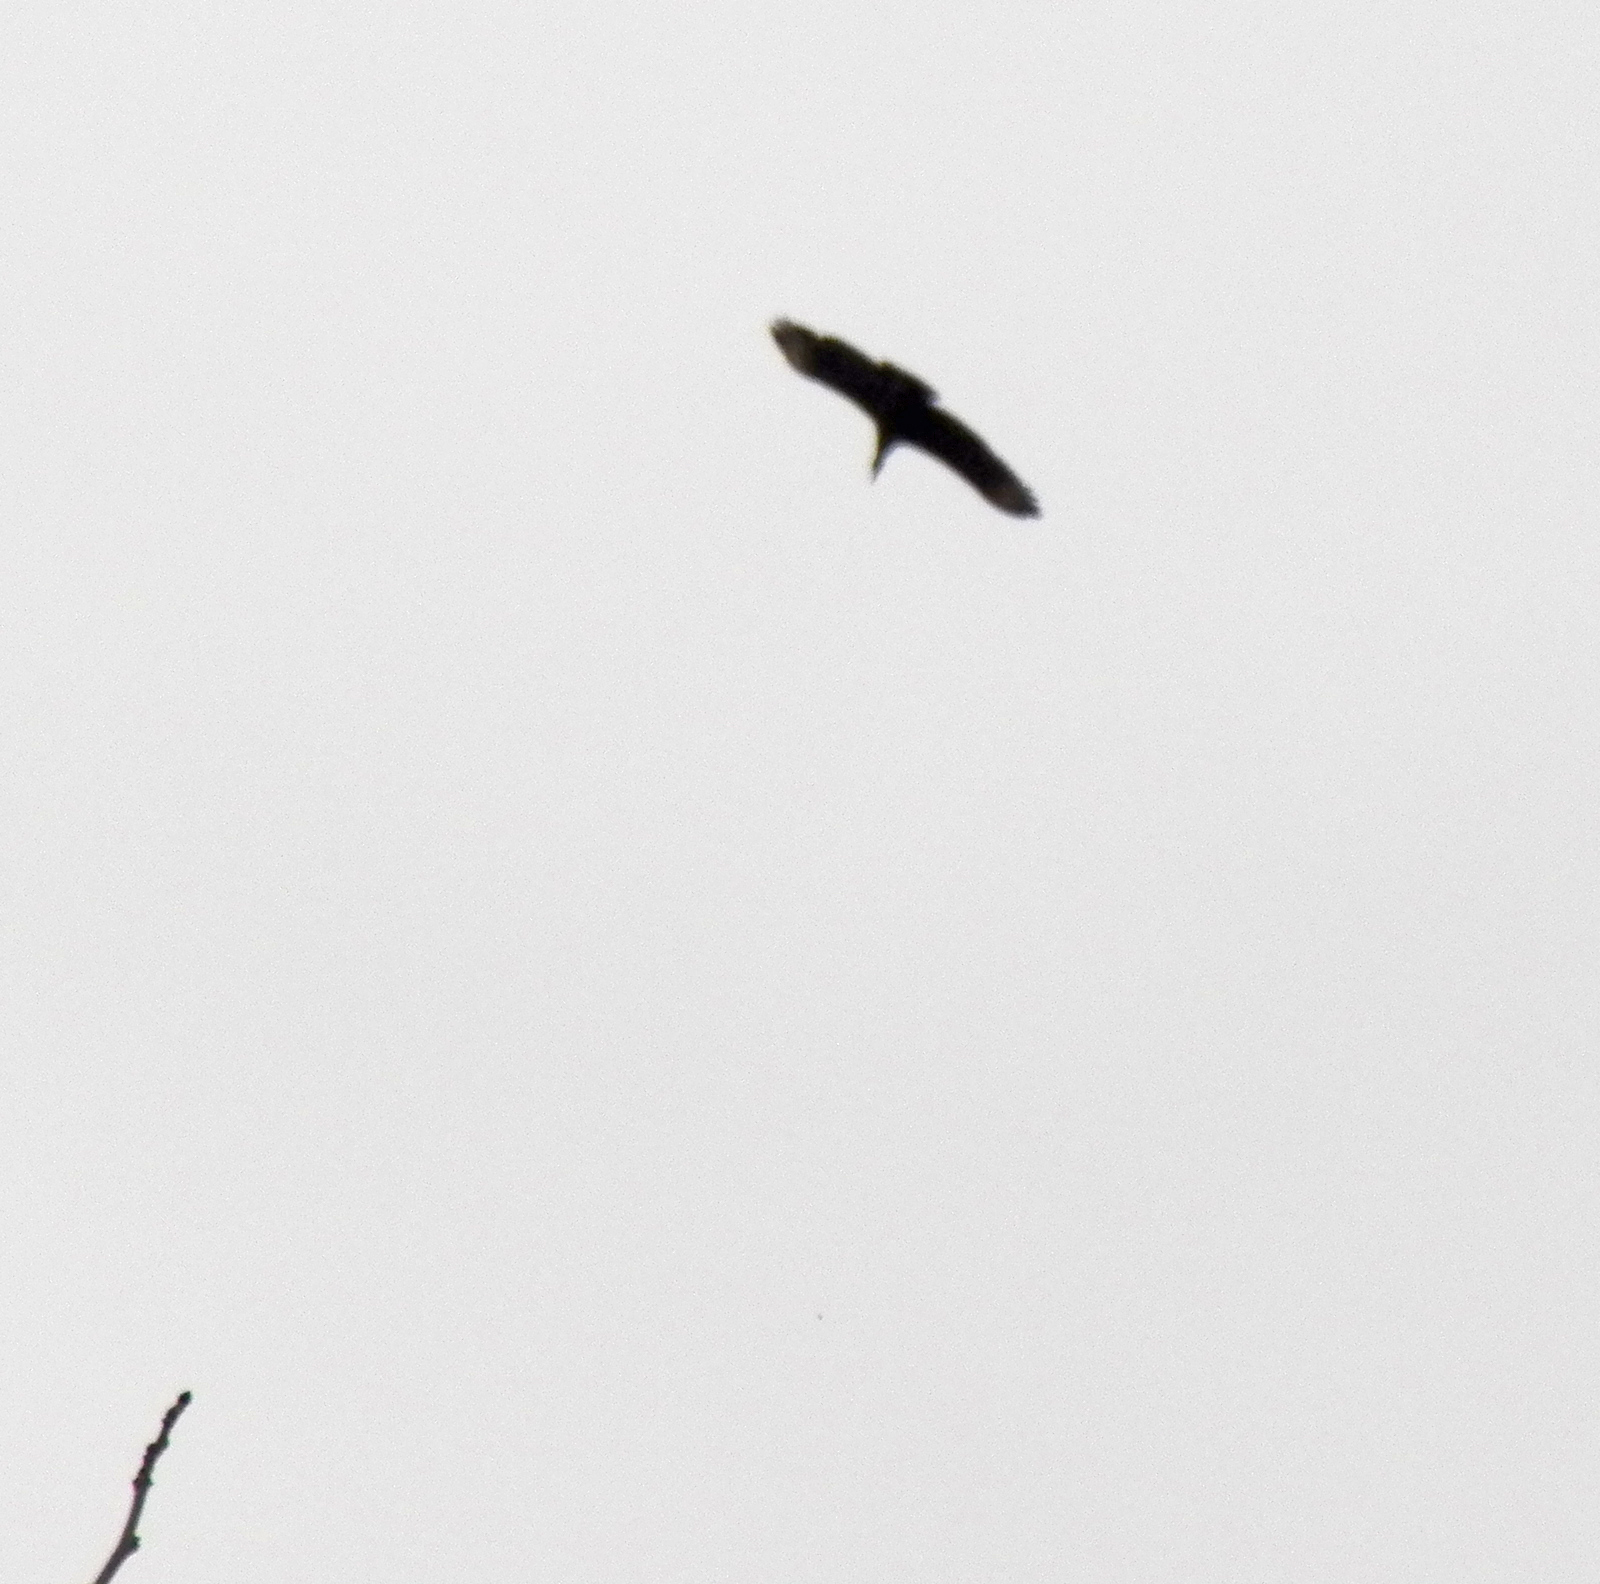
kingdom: Animalia
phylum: Chordata
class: Aves
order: Accipitriformes
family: Cathartidae
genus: Coragyps
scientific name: Coragyps atratus
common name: Black vulture
